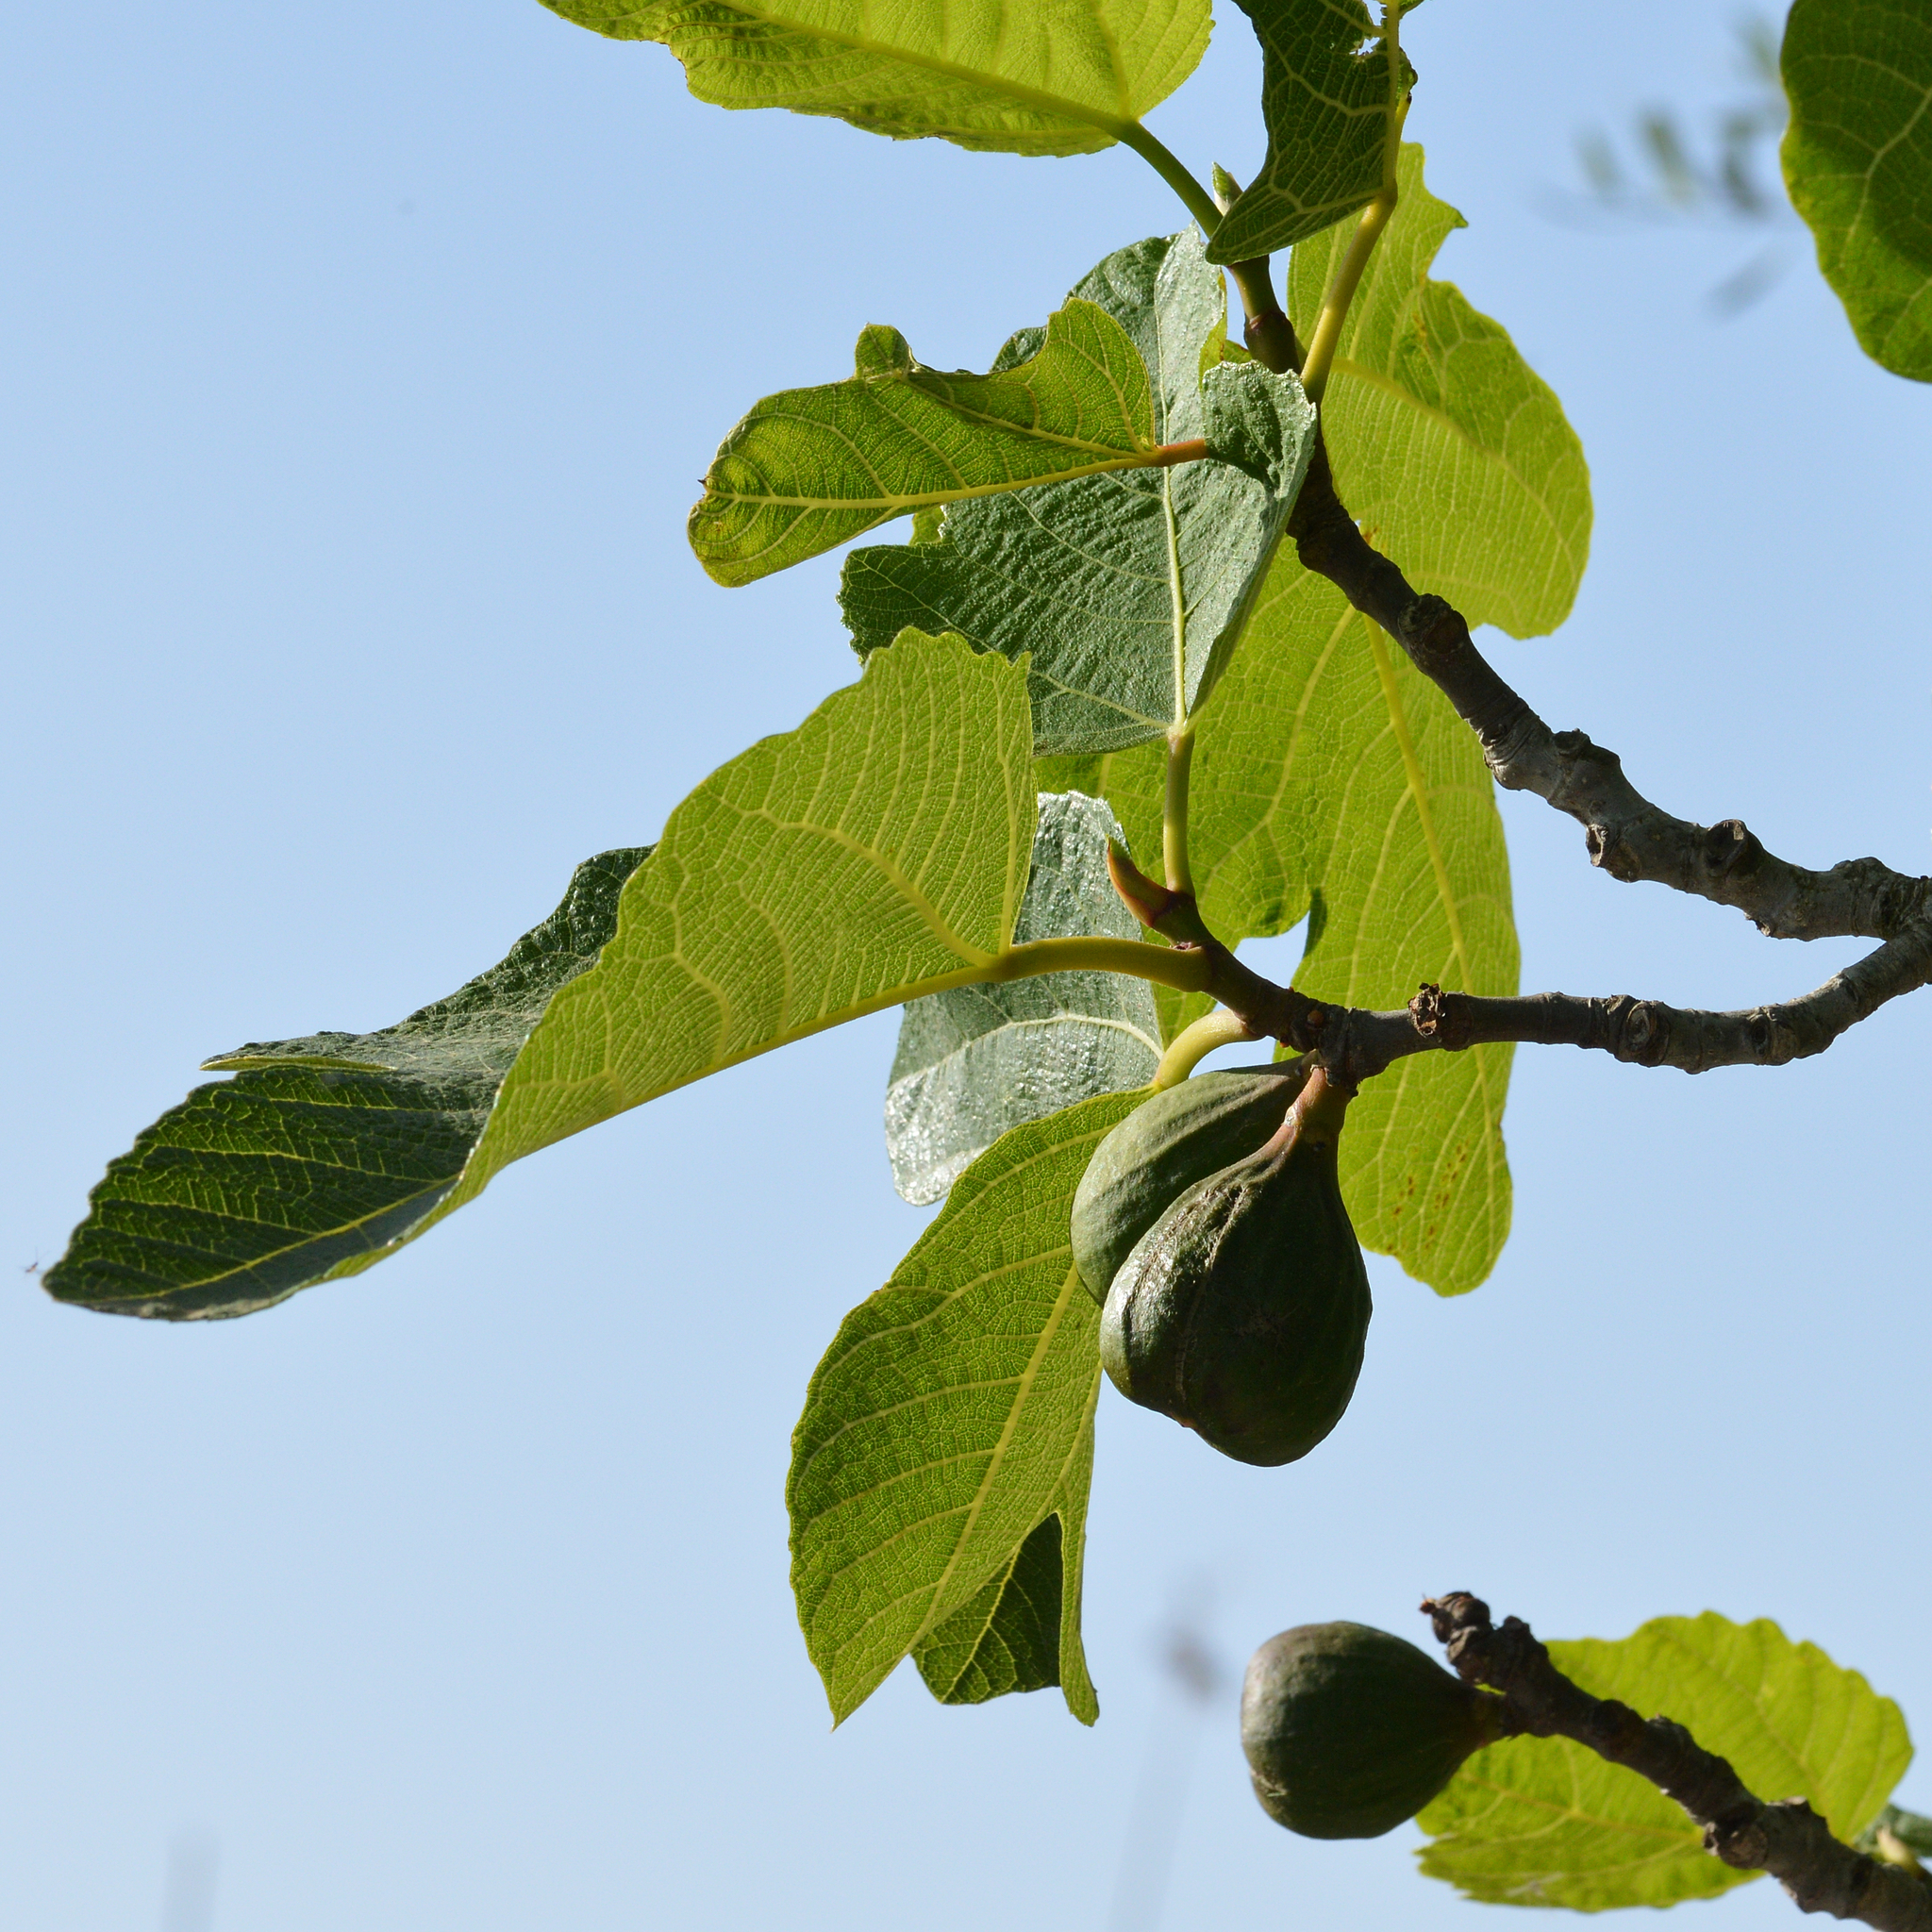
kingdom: Plantae
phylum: Tracheophyta
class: Magnoliopsida
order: Rosales
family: Moraceae
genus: Ficus
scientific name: Ficus carica
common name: Fig
